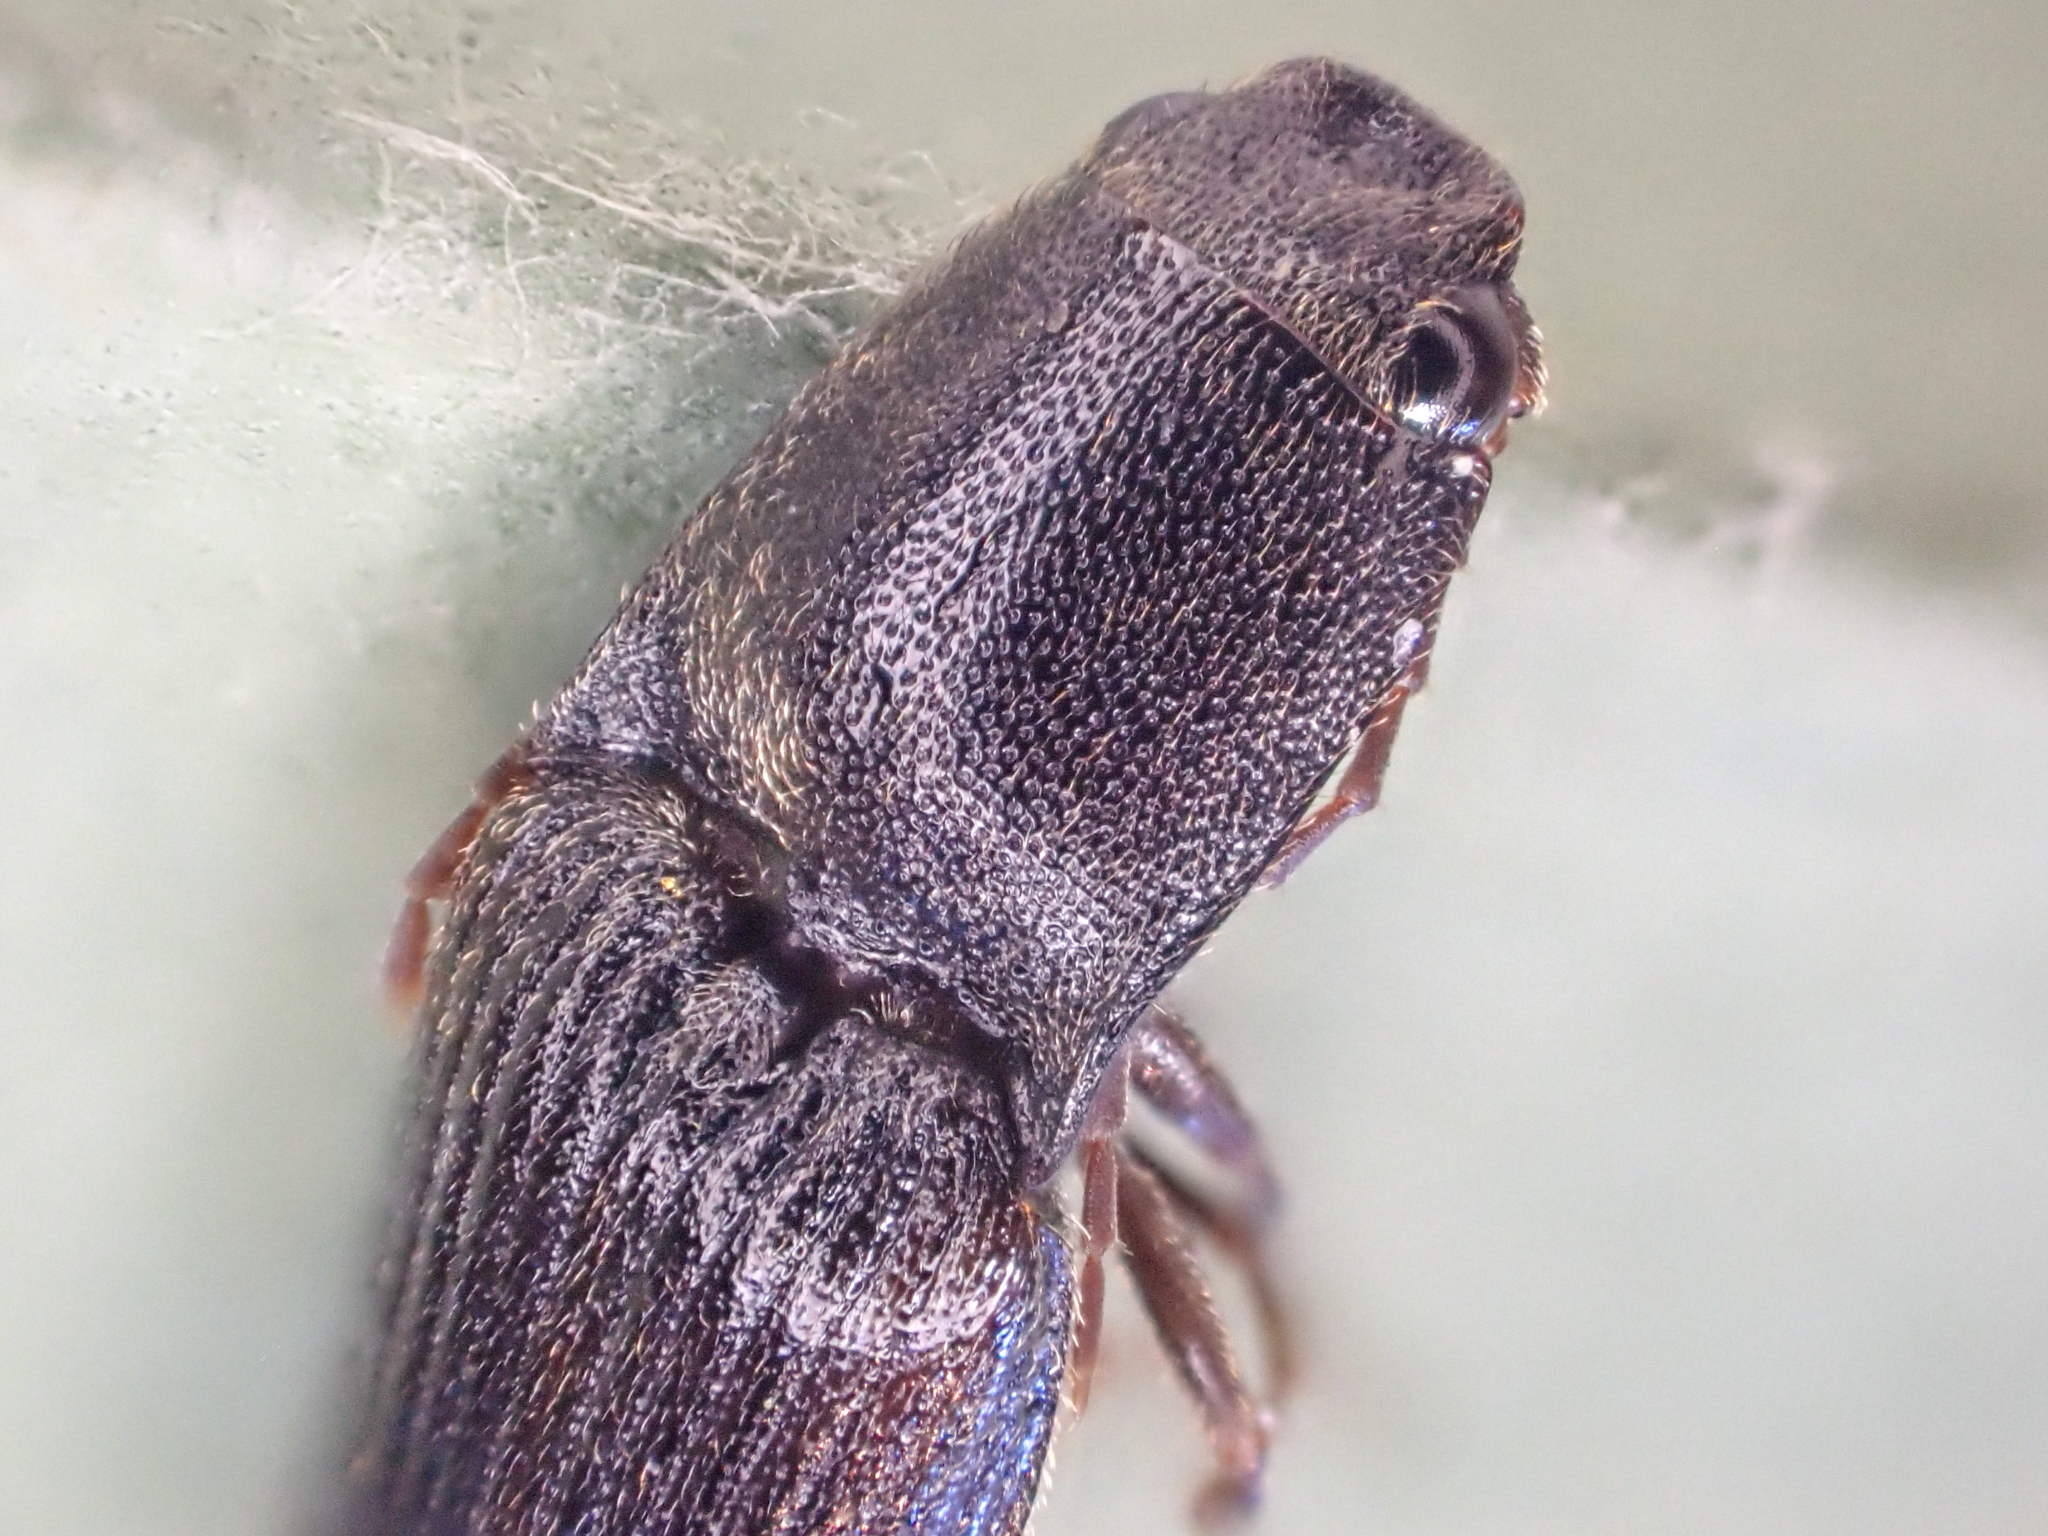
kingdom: Animalia
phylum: Arthropoda
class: Insecta
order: Coleoptera
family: Elateridae
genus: Athous
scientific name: Athous nigropilis
